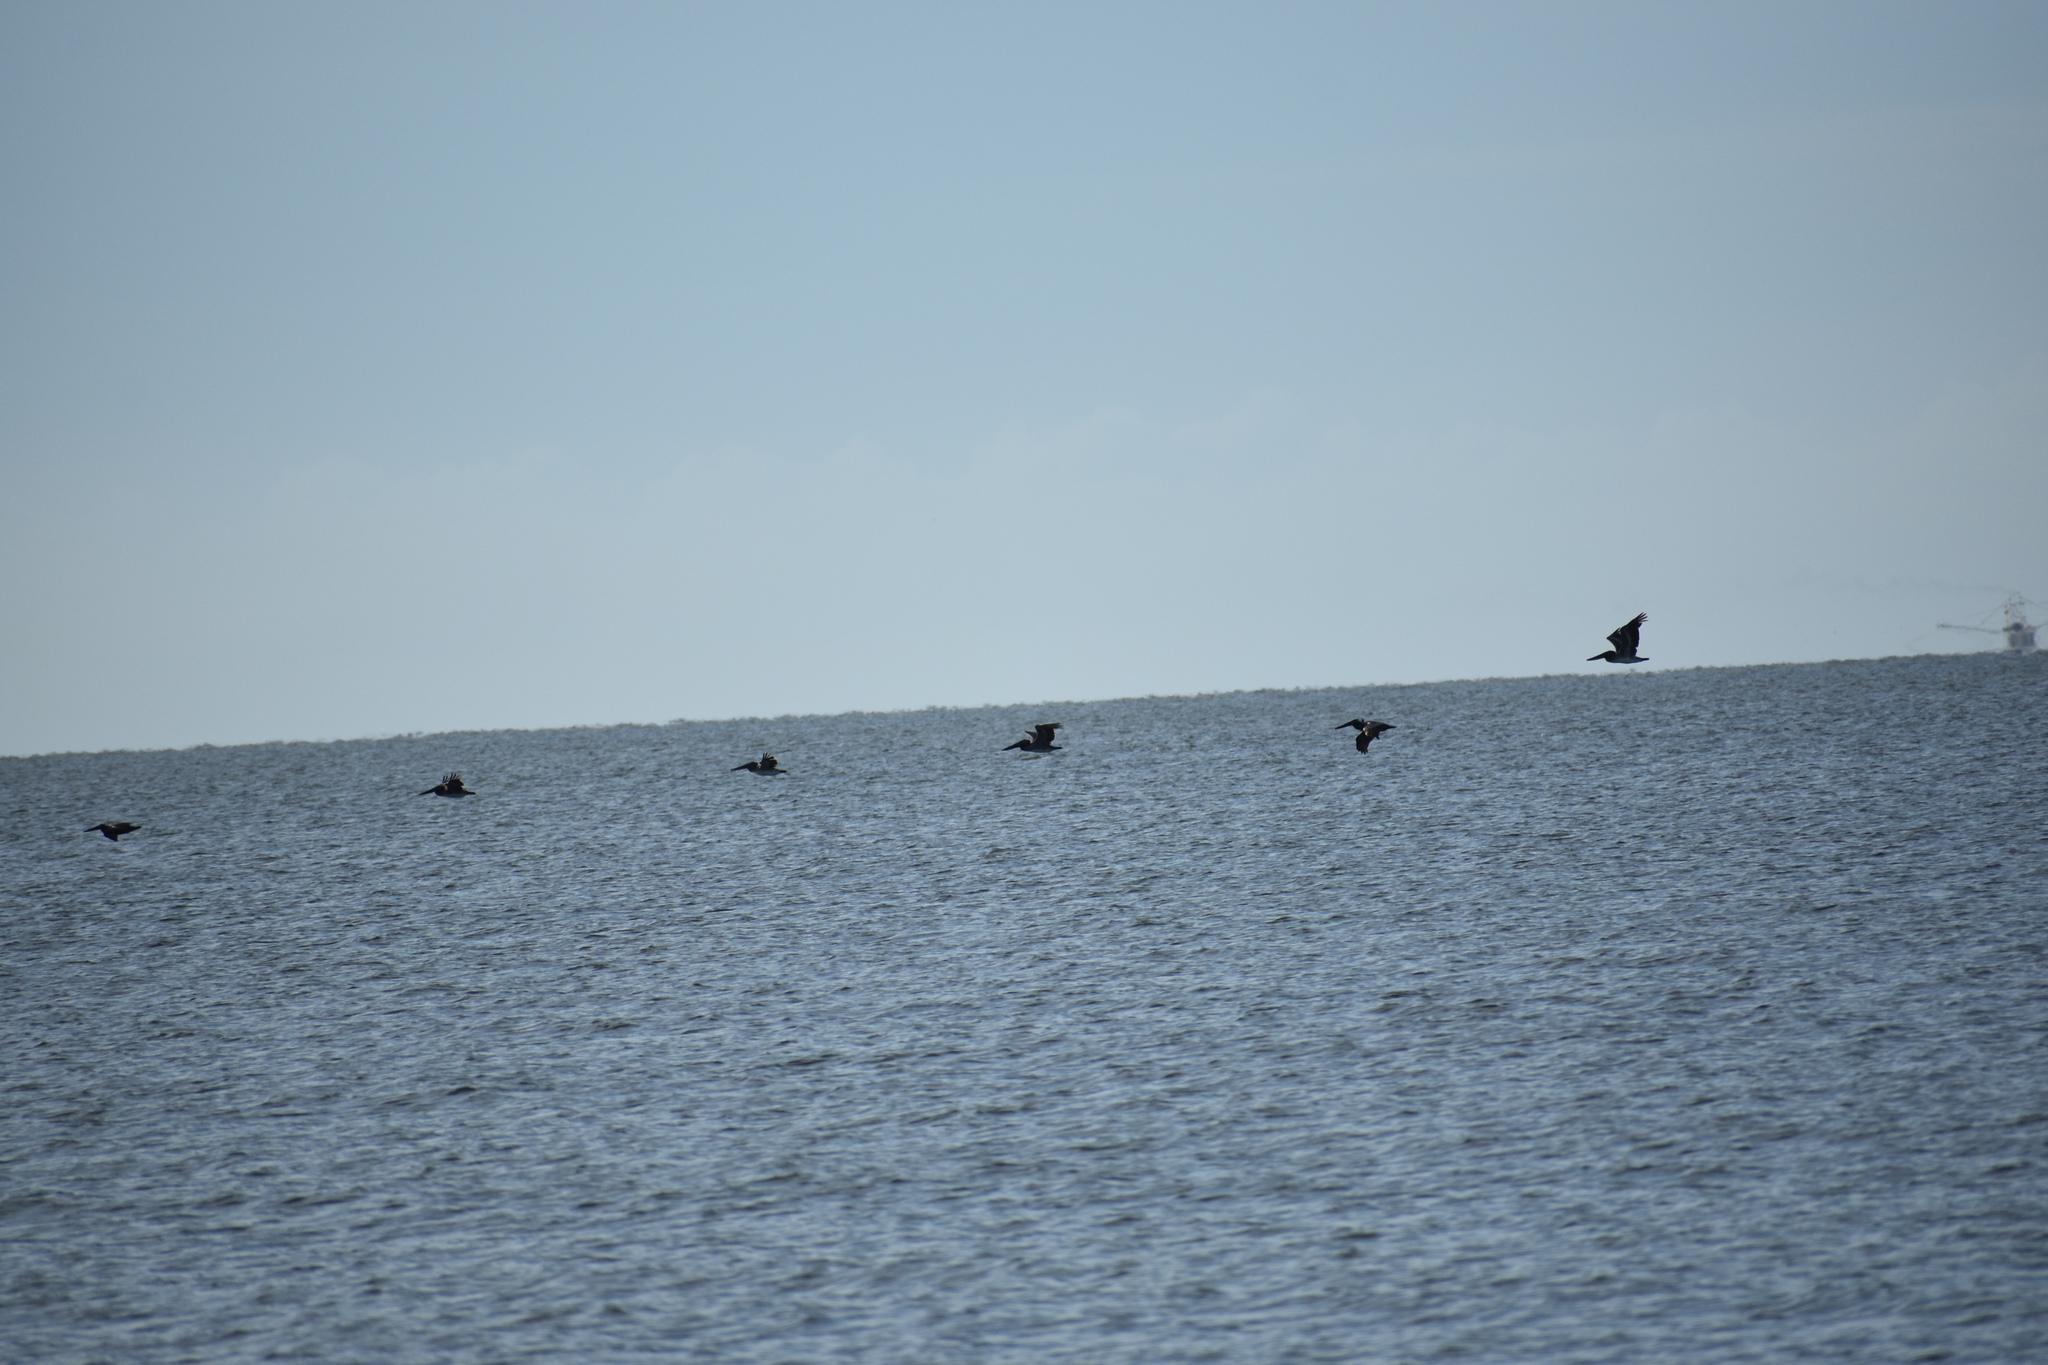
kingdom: Animalia
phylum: Chordata
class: Aves
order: Pelecaniformes
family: Pelecanidae
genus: Pelecanus
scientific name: Pelecanus occidentalis
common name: Brown pelican
